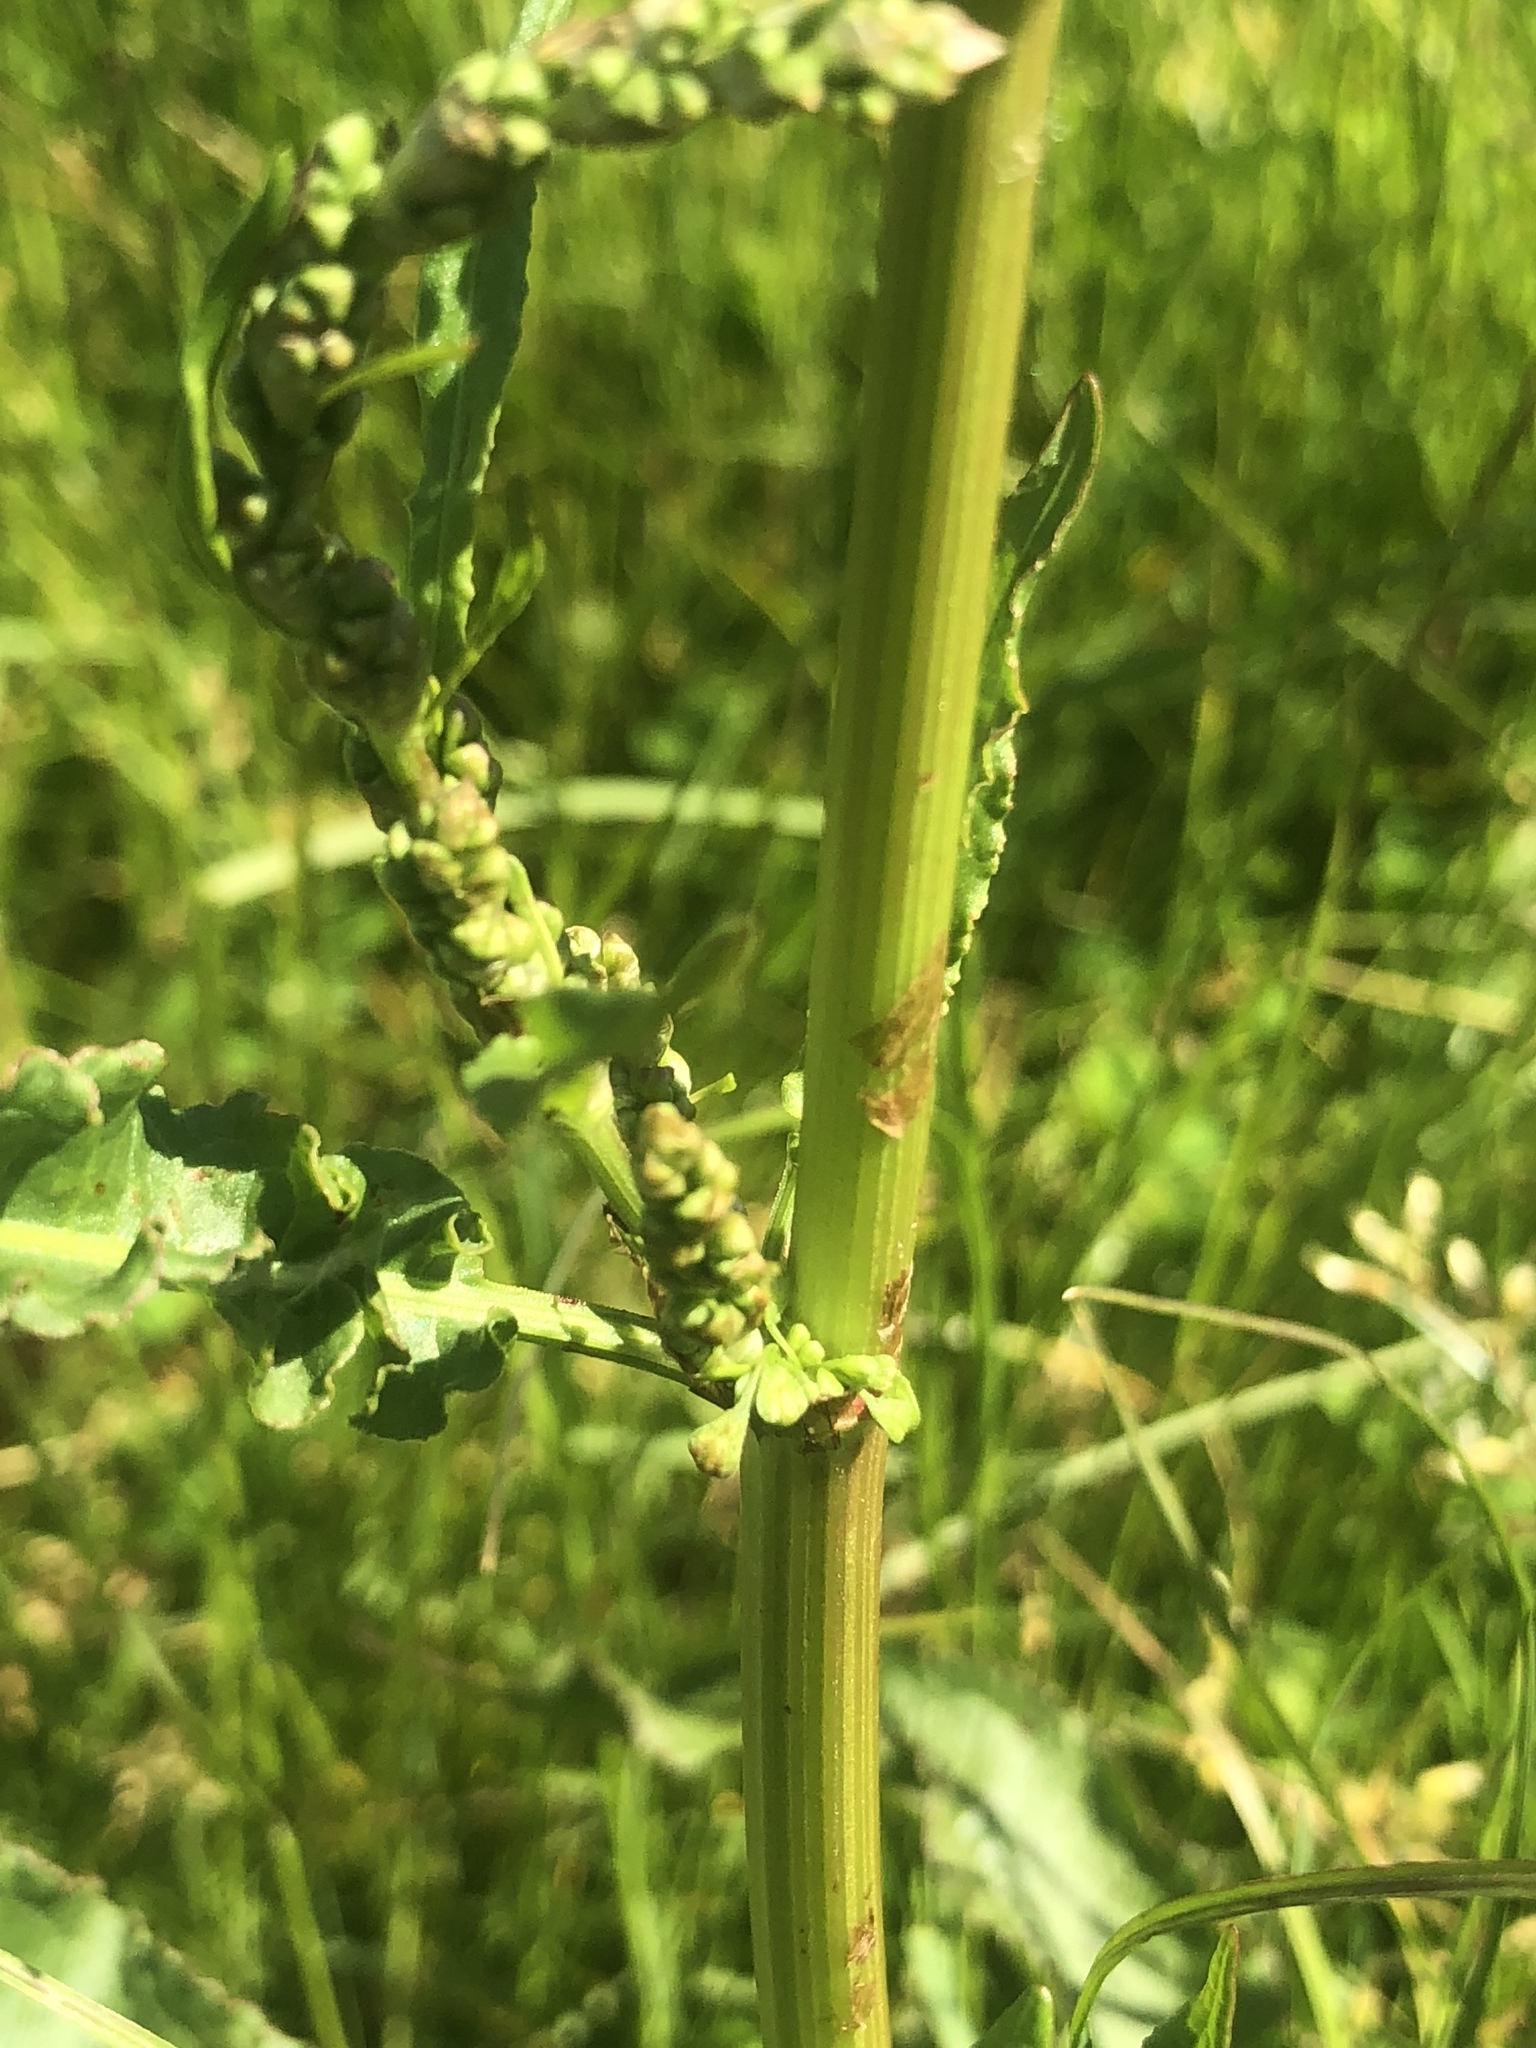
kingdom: Plantae
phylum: Tracheophyta
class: Magnoliopsida
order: Caryophyllales
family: Polygonaceae
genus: Rumex
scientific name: Rumex crispus
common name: Curled dock
